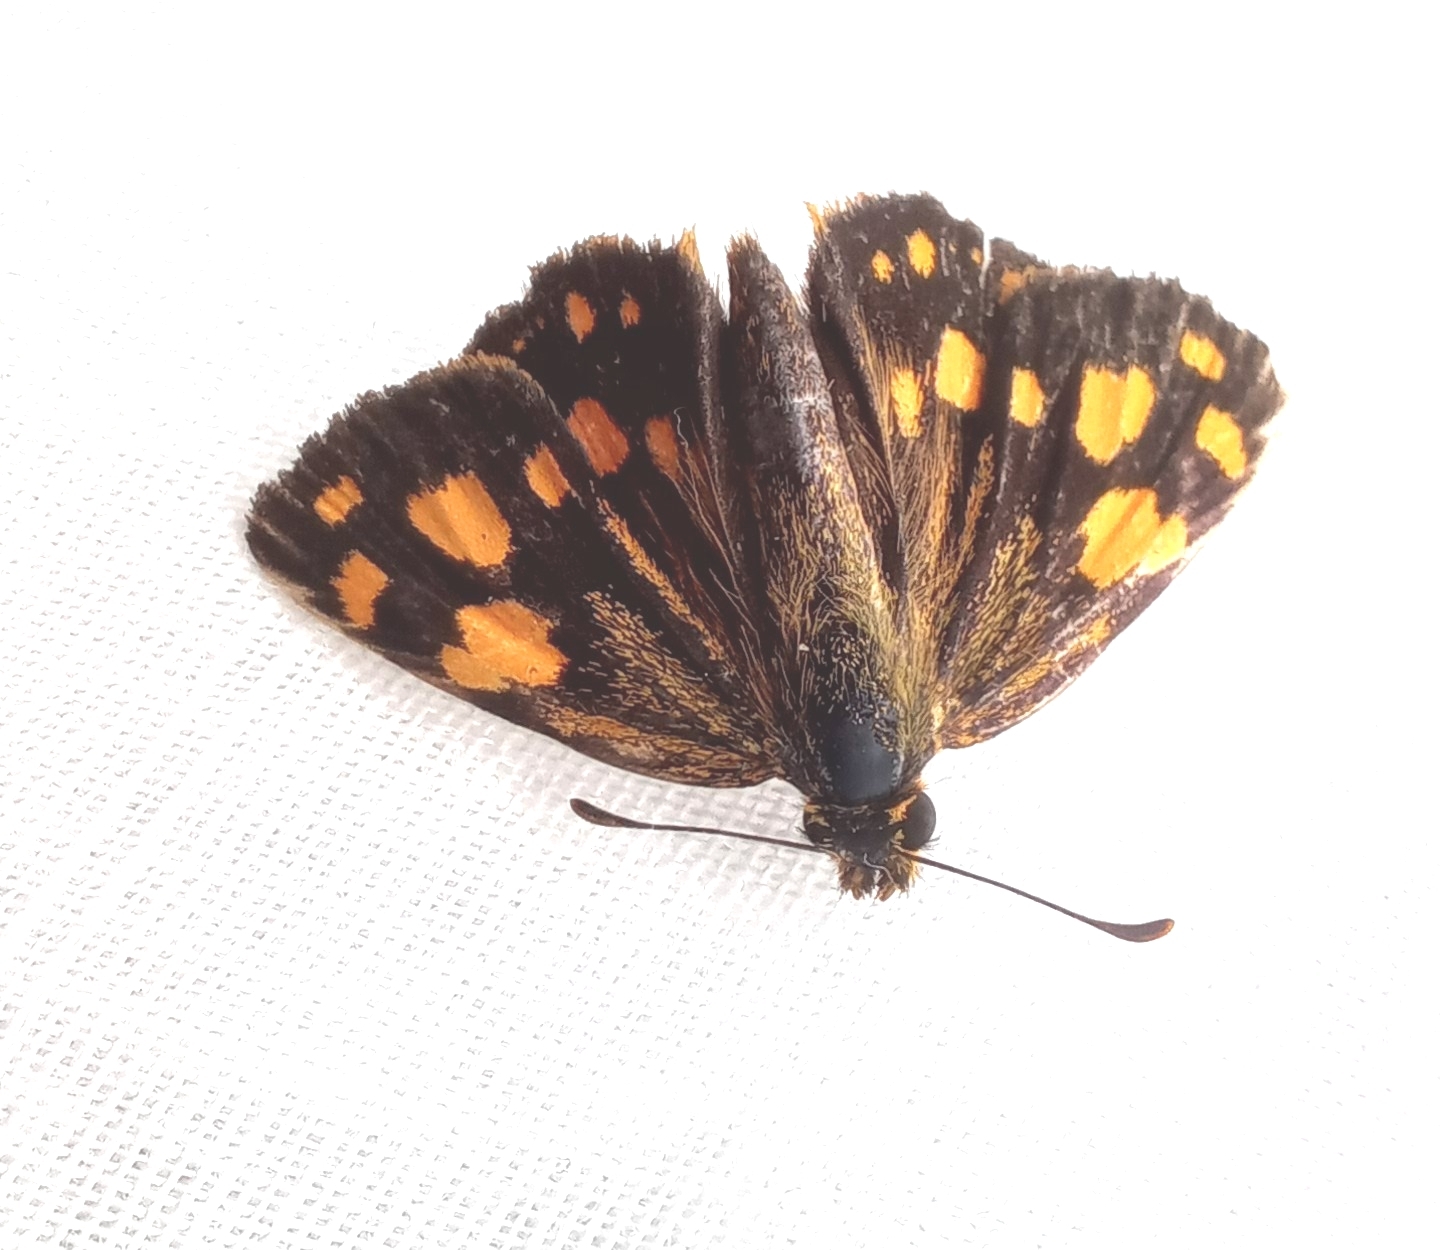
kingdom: Animalia
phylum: Arthropoda
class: Insecta
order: Lepidoptera
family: Hesperiidae
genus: Metisella
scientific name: Metisella metis
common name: Western gold-spotted sylph
